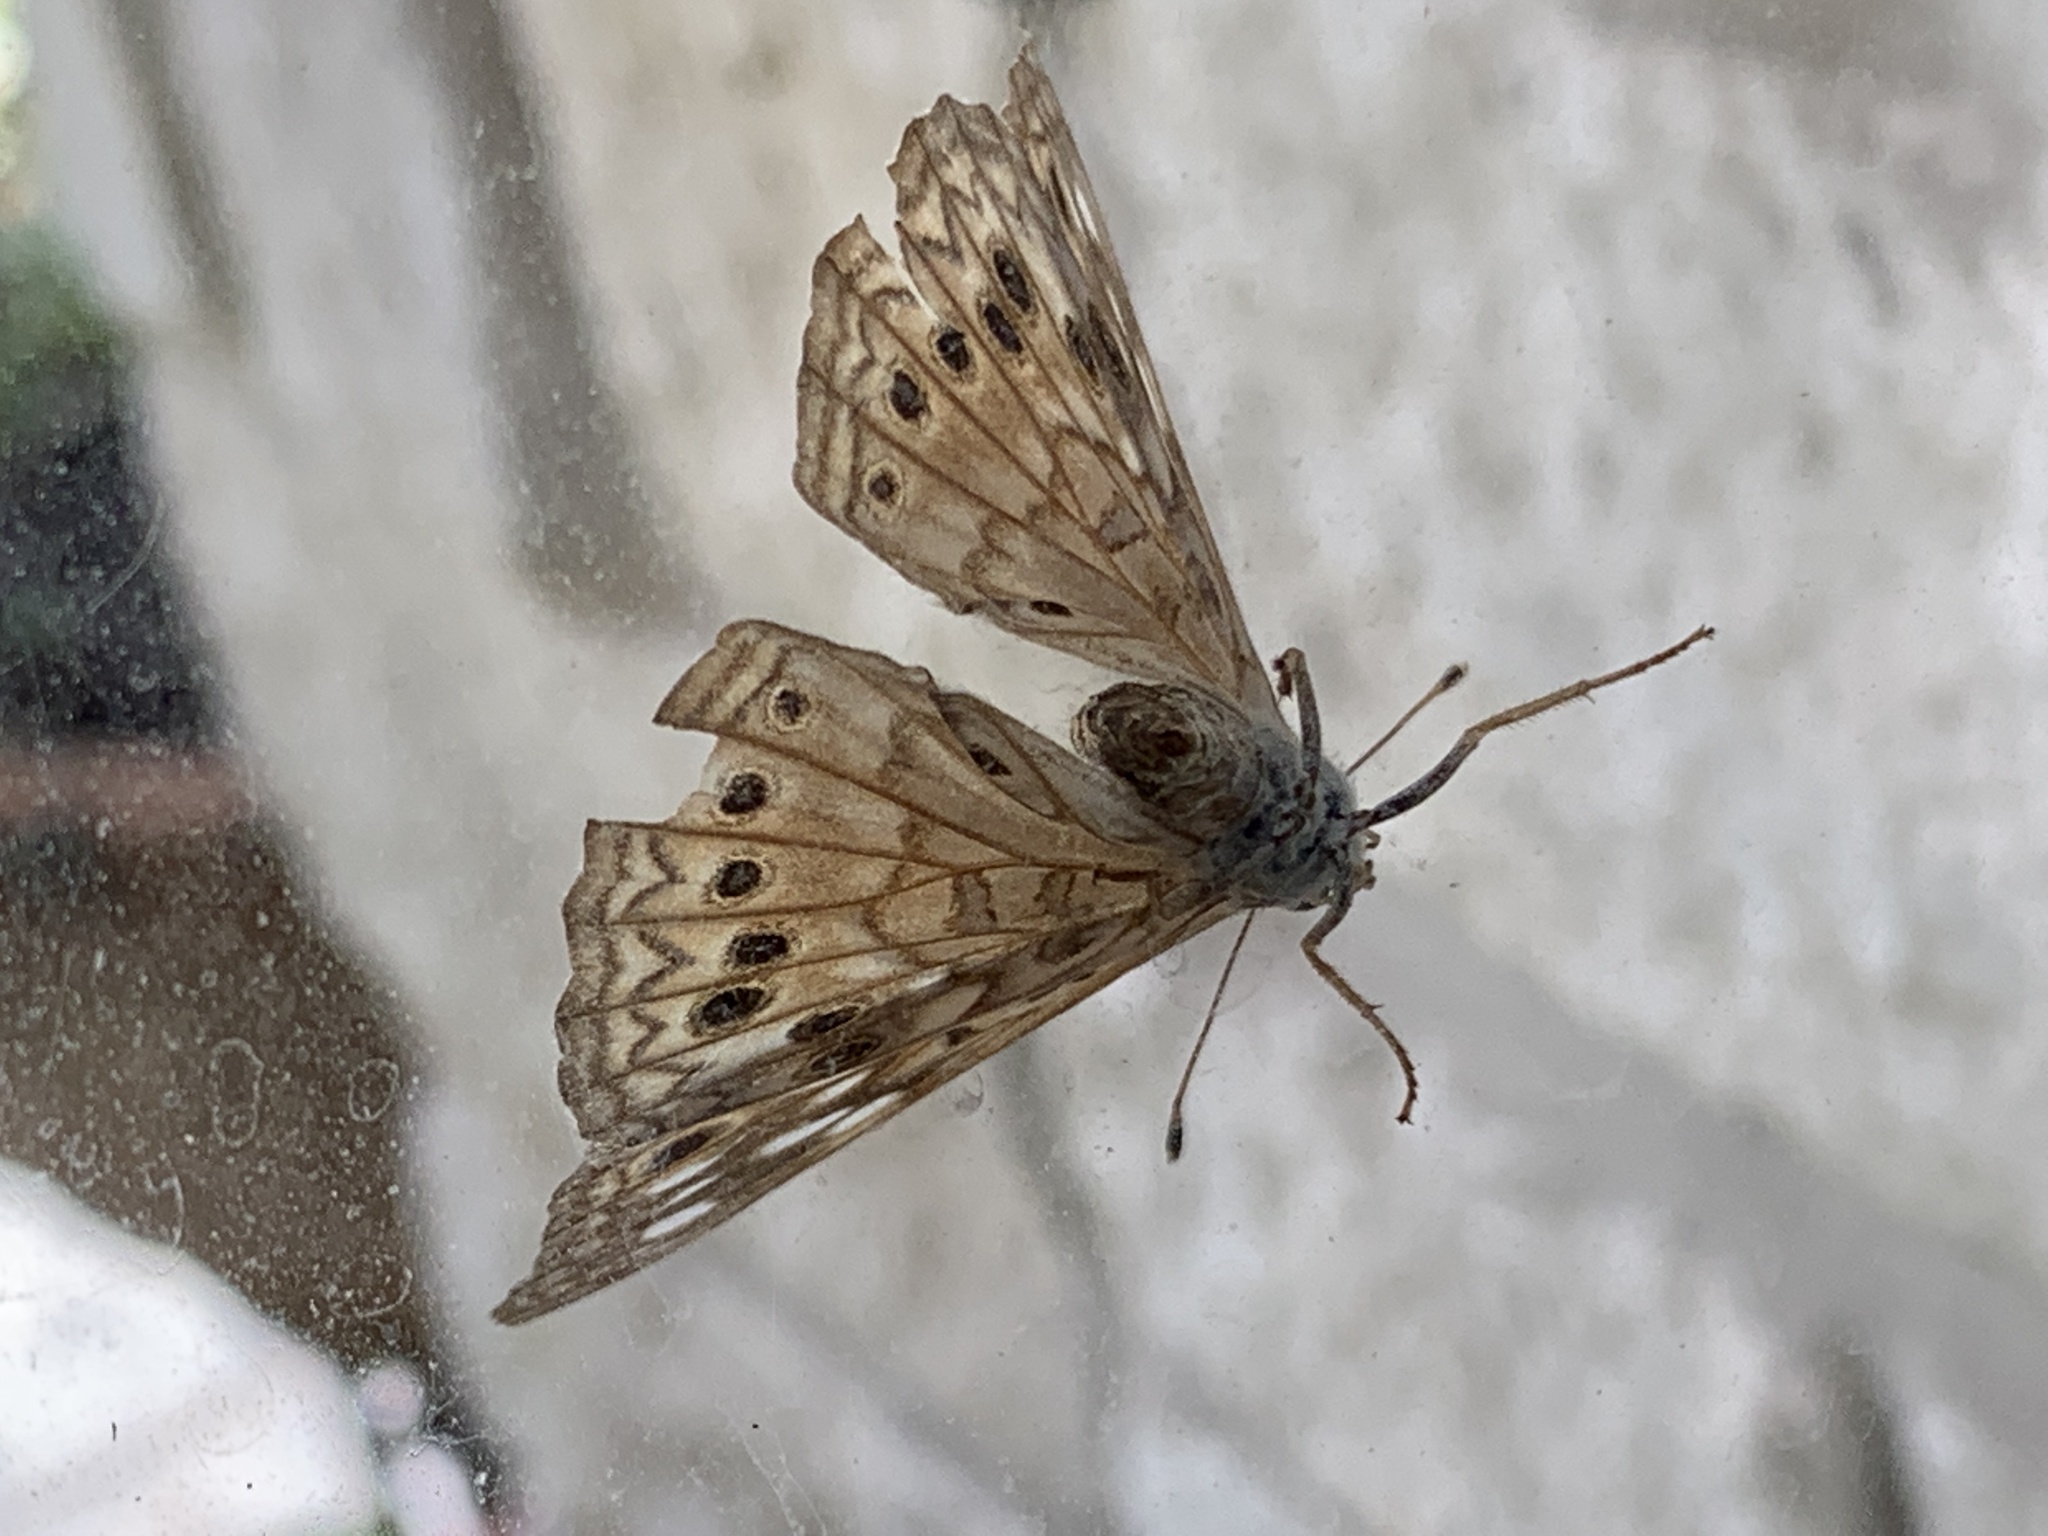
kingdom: Animalia
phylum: Arthropoda
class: Insecta
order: Lepidoptera
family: Nymphalidae
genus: Asterocampa
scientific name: Asterocampa celtis
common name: Hackberry emperor
